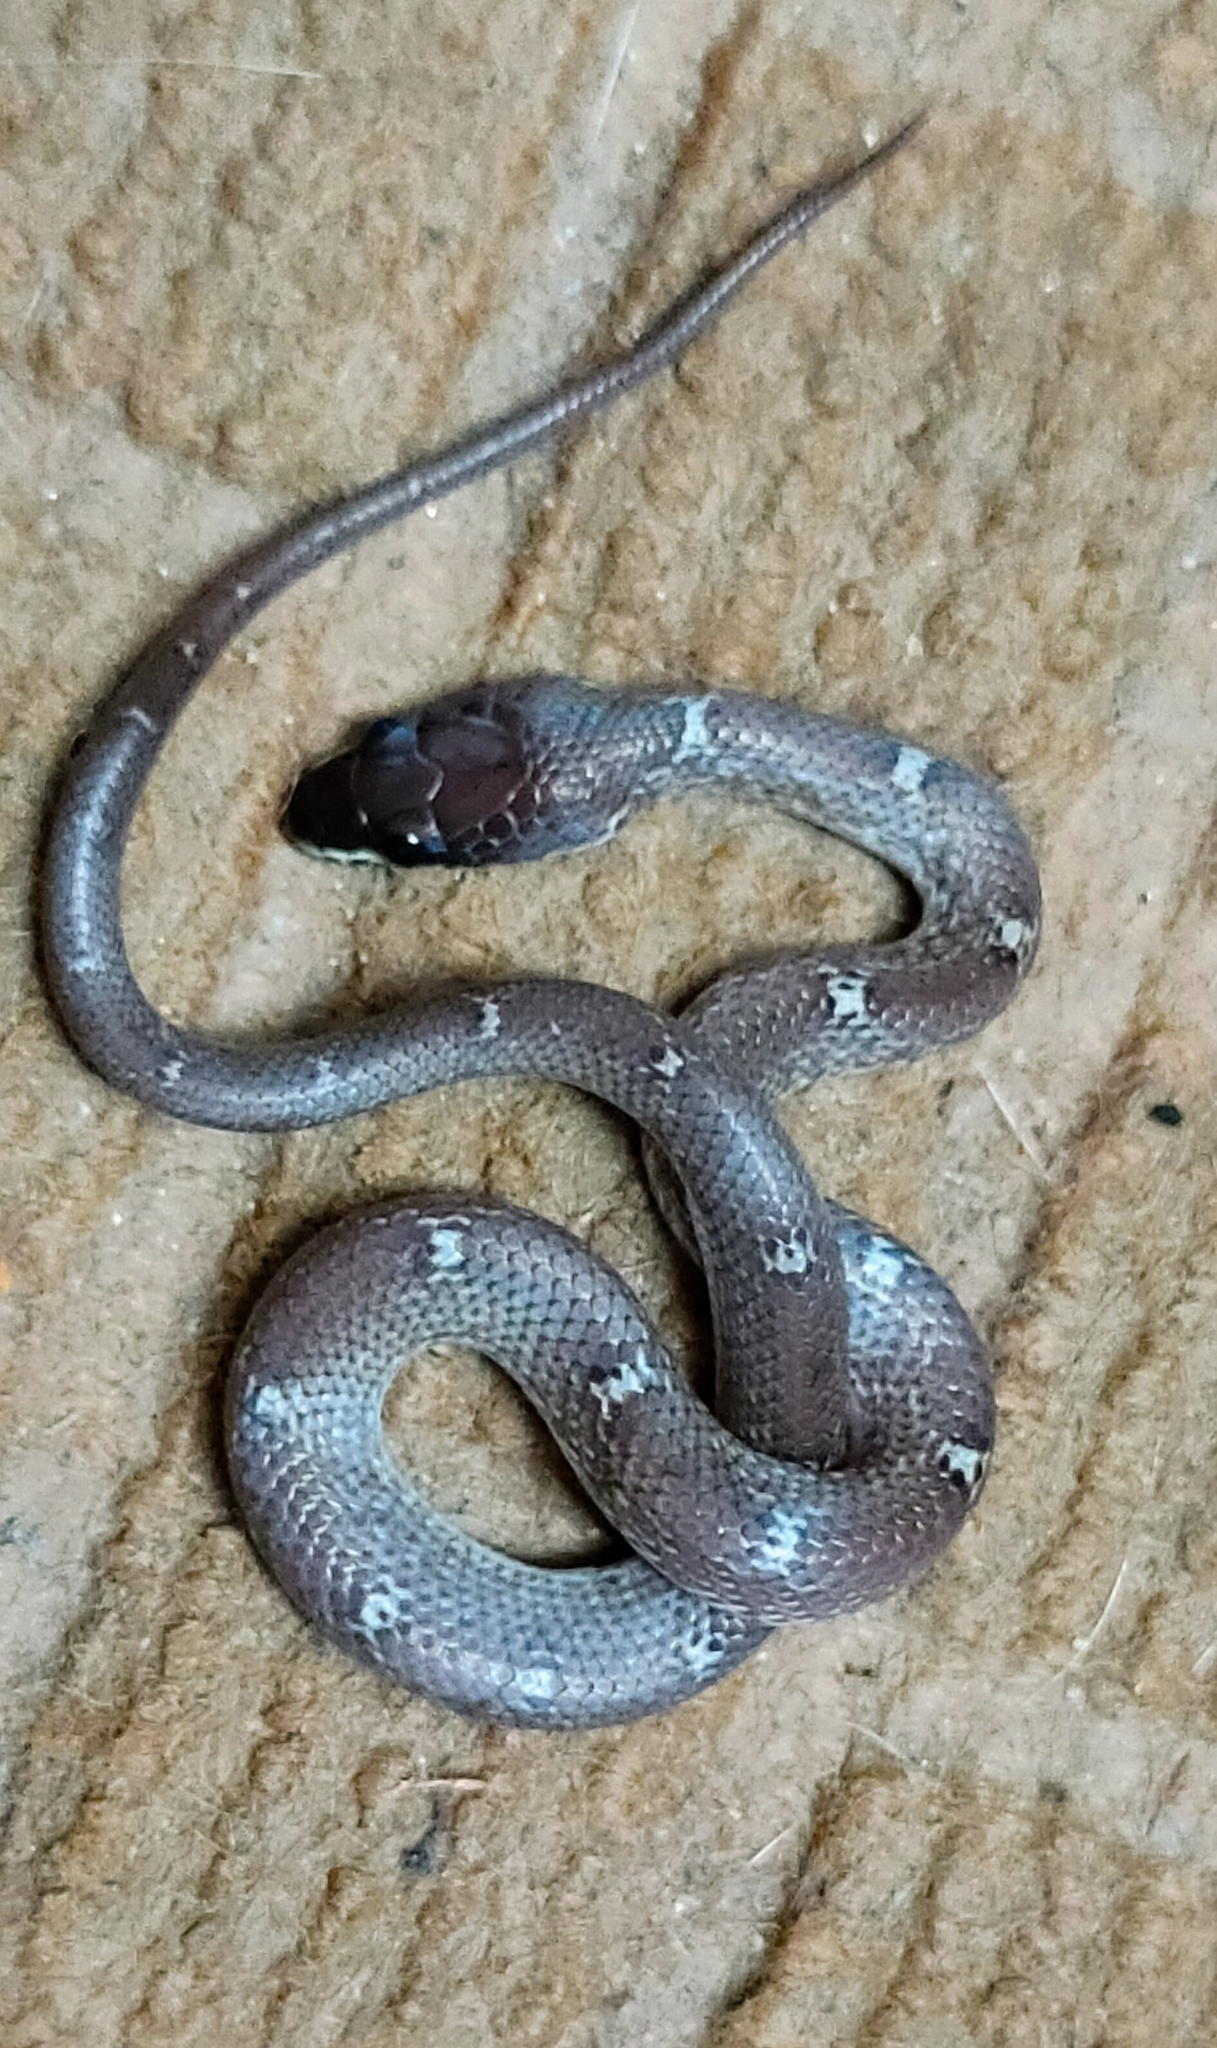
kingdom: Animalia
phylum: Chordata
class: Squamata
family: Colubridae
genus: Lycodon
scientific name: Lycodon fasciolatus
